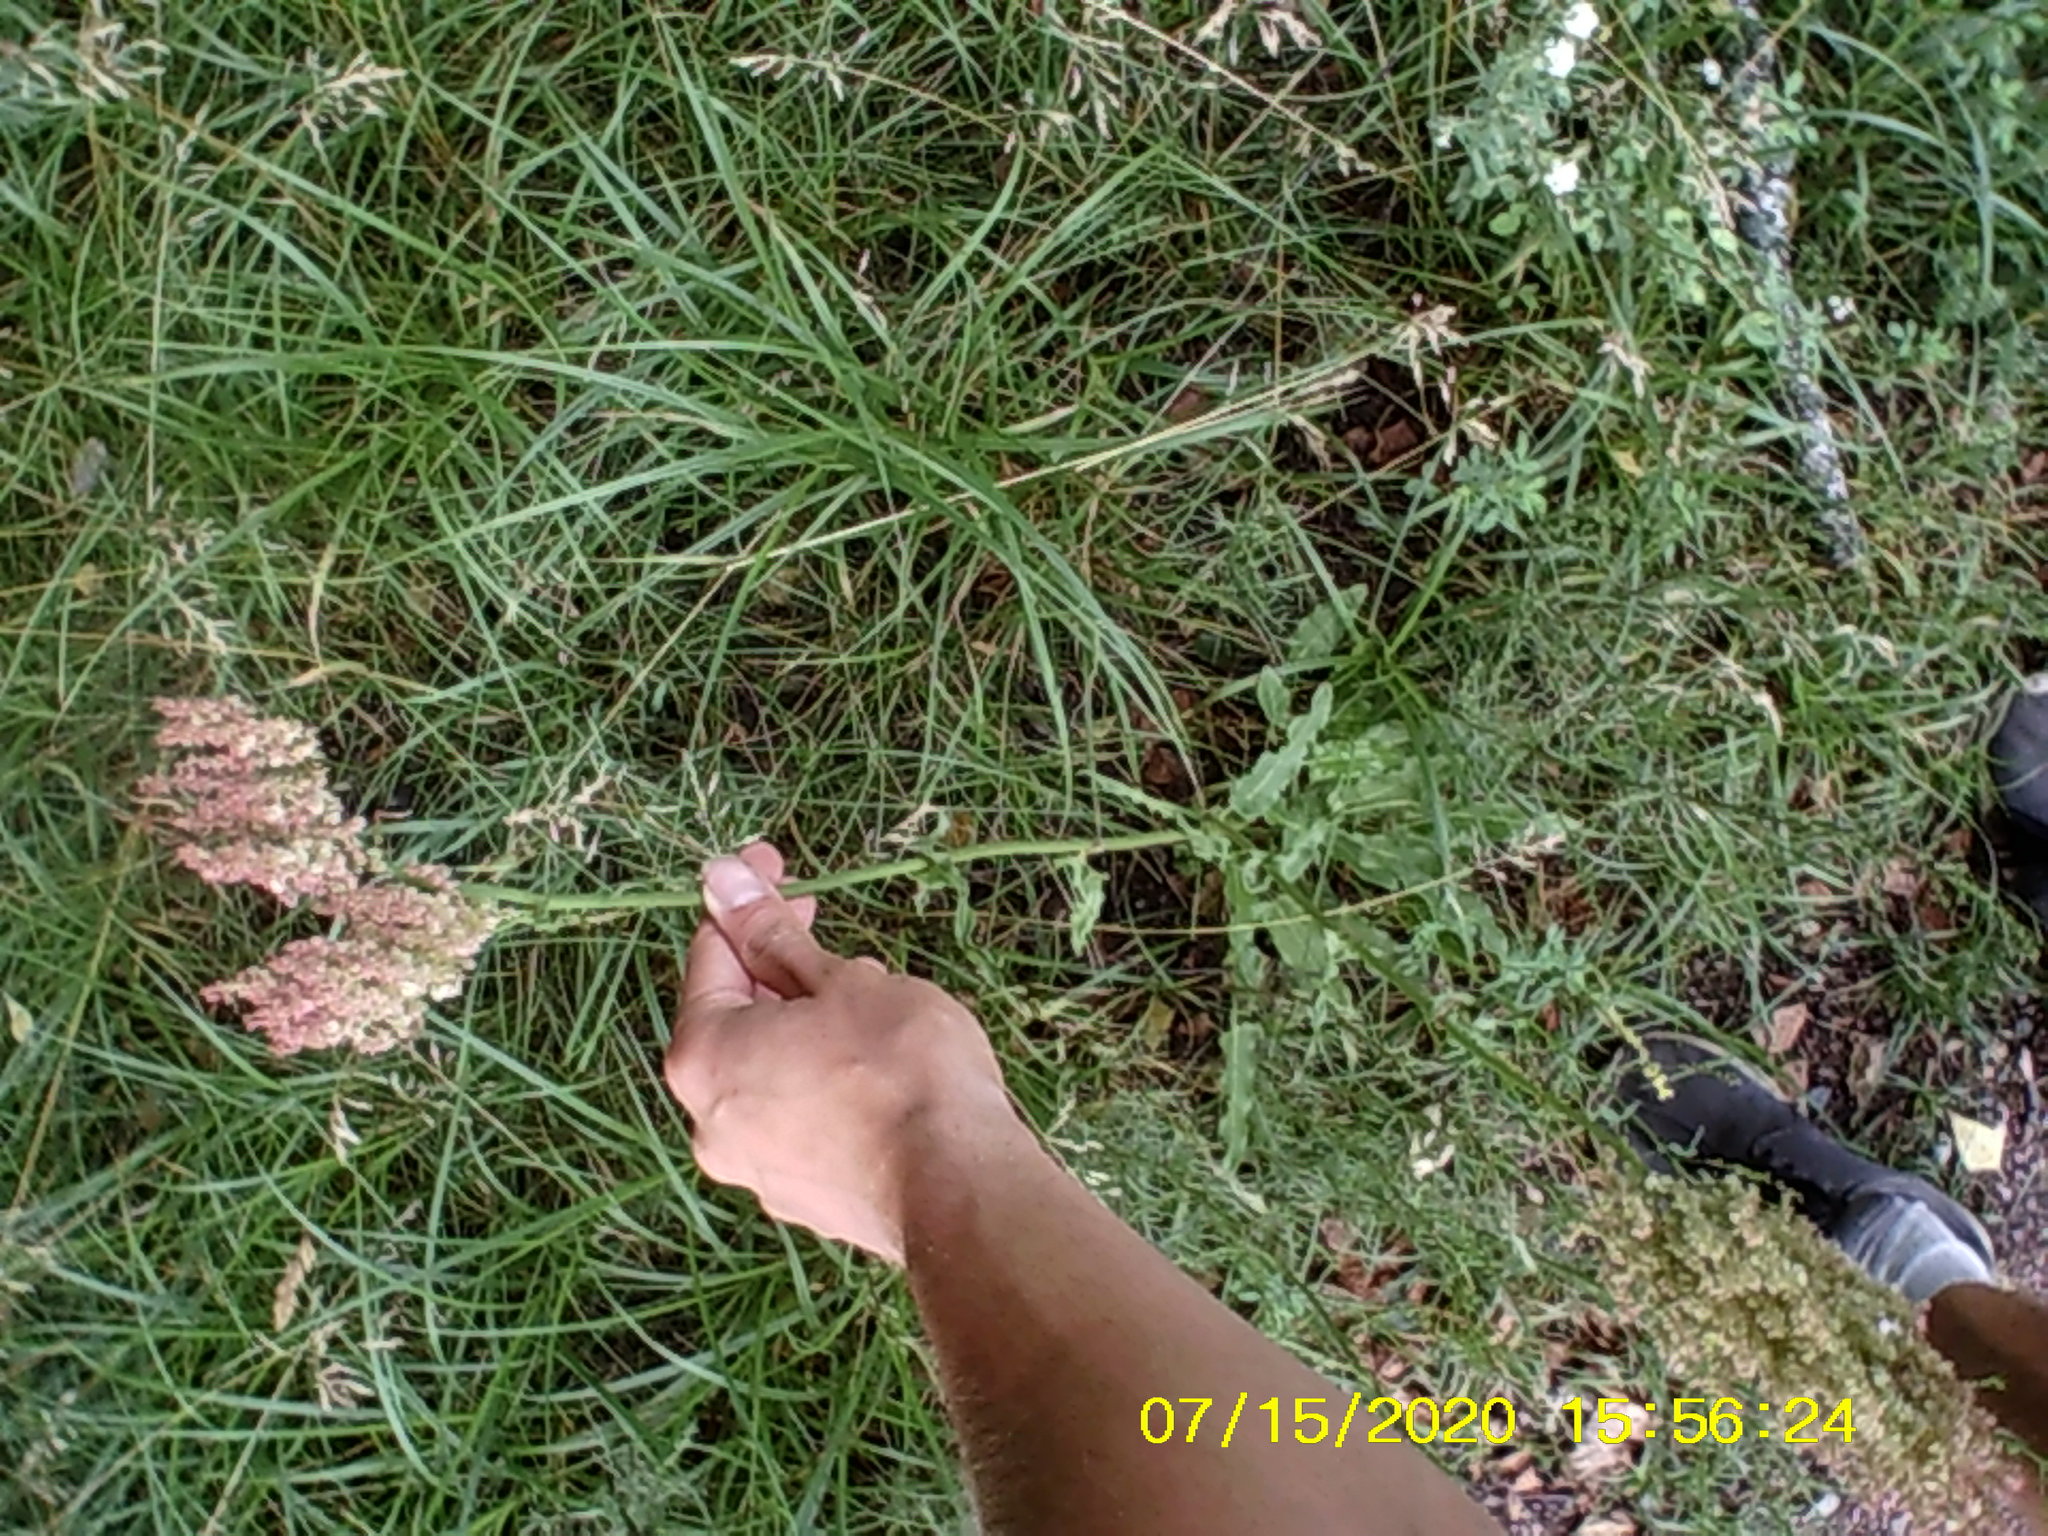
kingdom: Plantae
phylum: Tracheophyta
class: Magnoliopsida
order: Caryophyllales
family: Polygonaceae
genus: Rumex
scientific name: Rumex thyrsiflorus
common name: Garden sorrel
